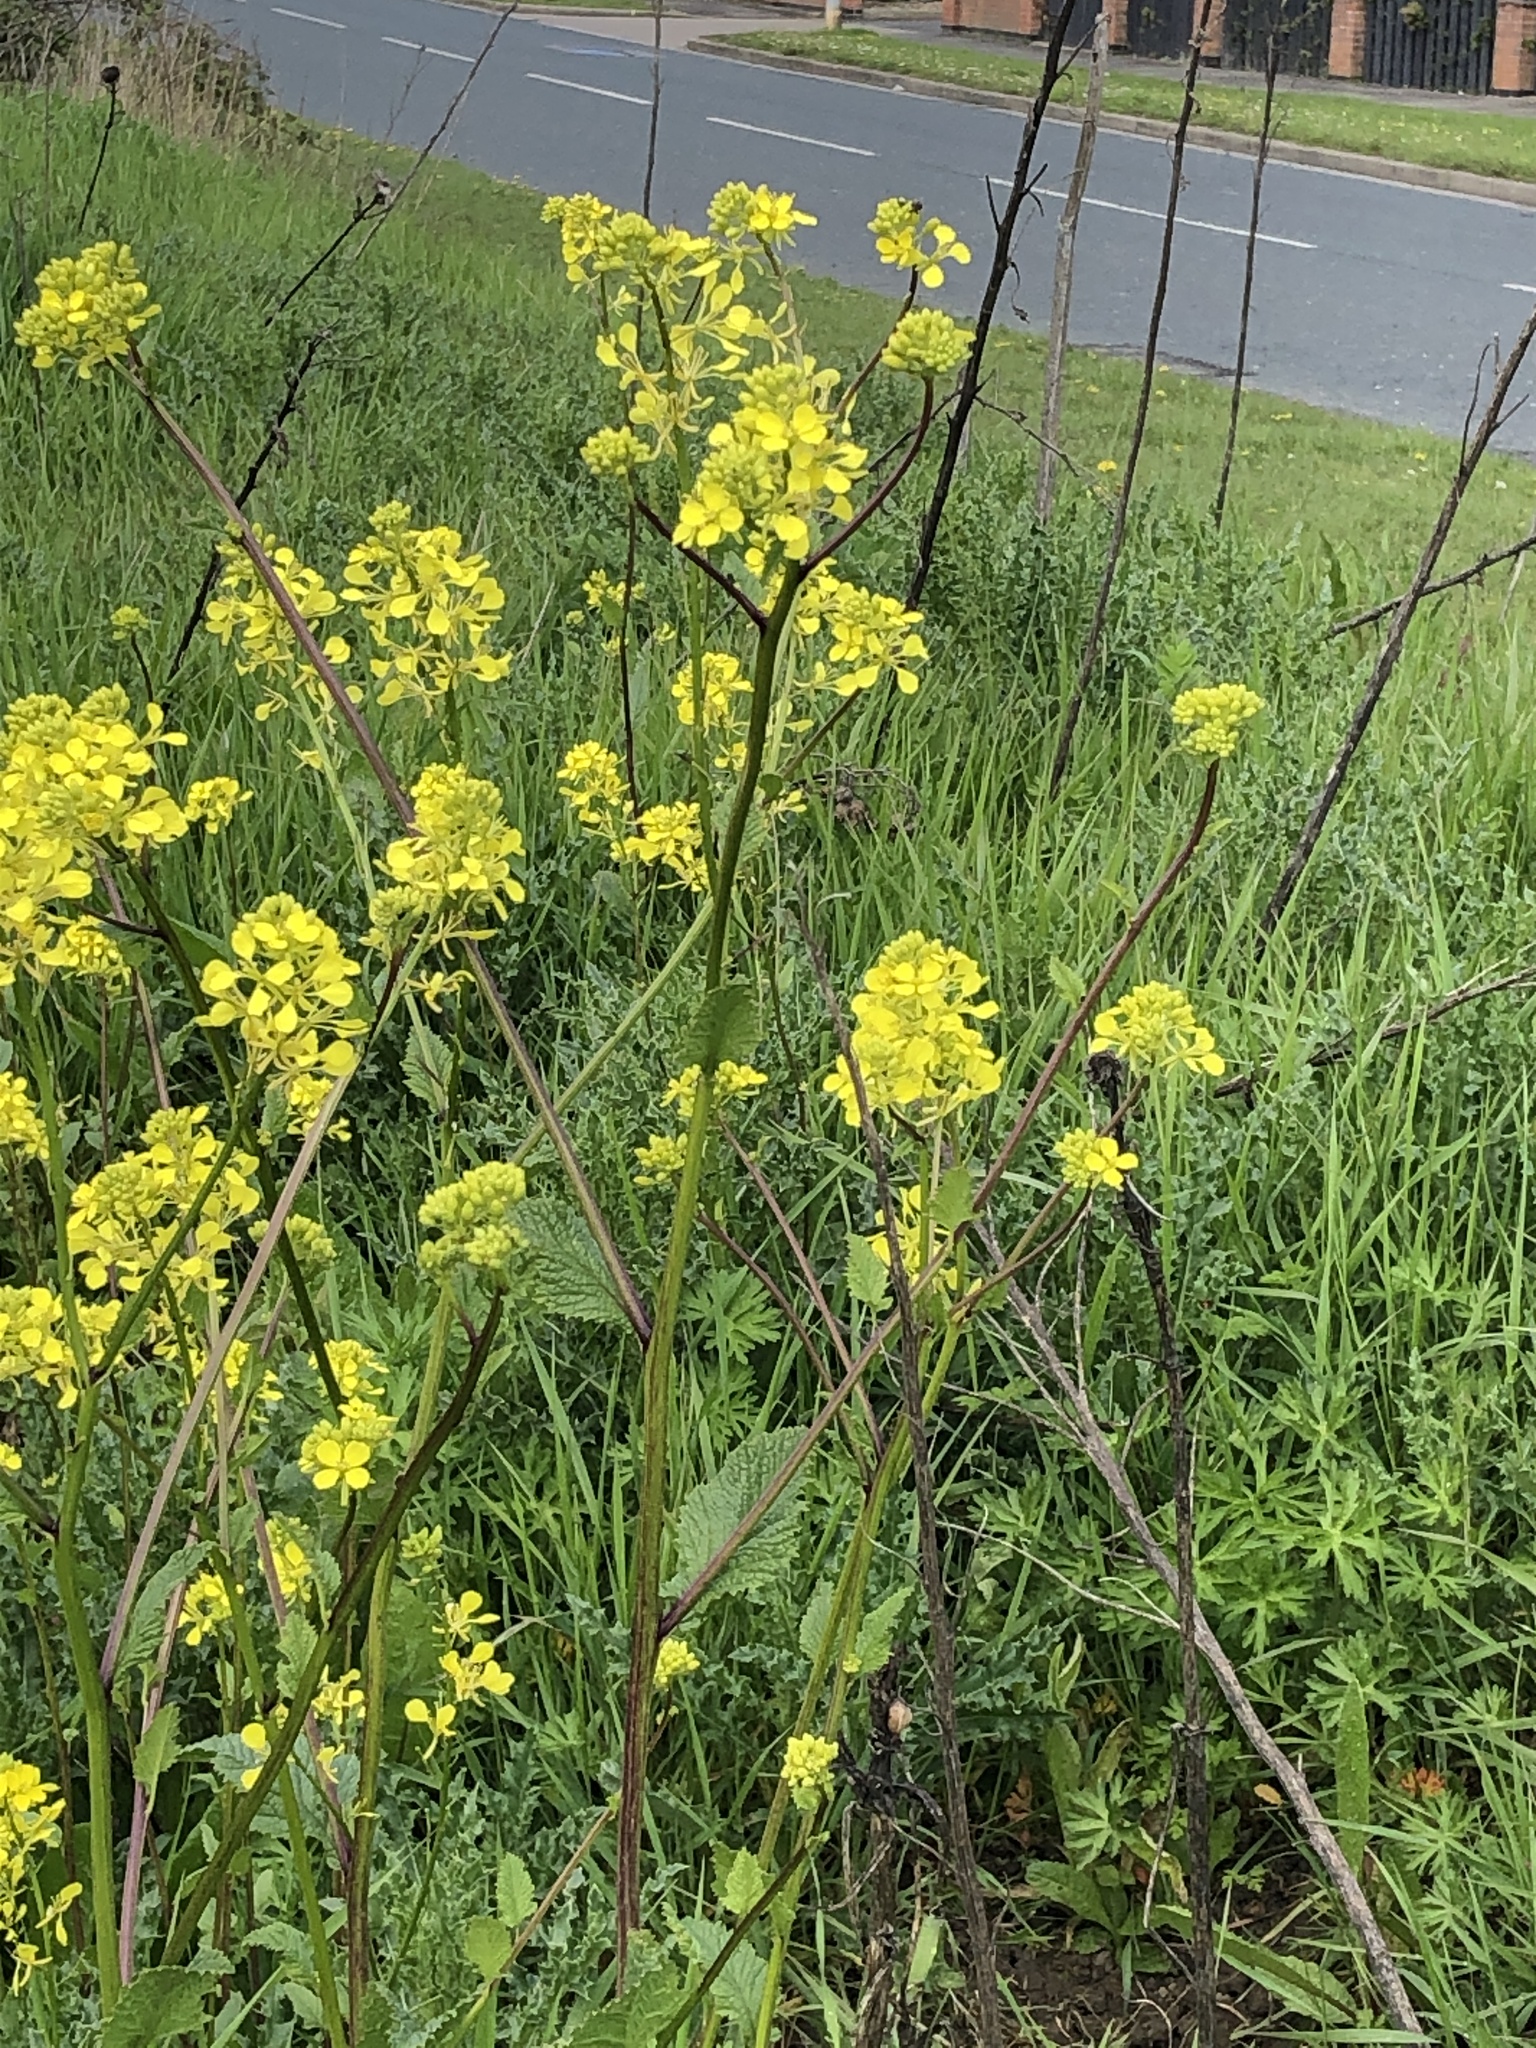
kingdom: Plantae
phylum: Tracheophyta
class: Magnoliopsida
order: Brassicales
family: Brassicaceae
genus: Sinapis
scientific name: Sinapis arvensis
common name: Charlock
